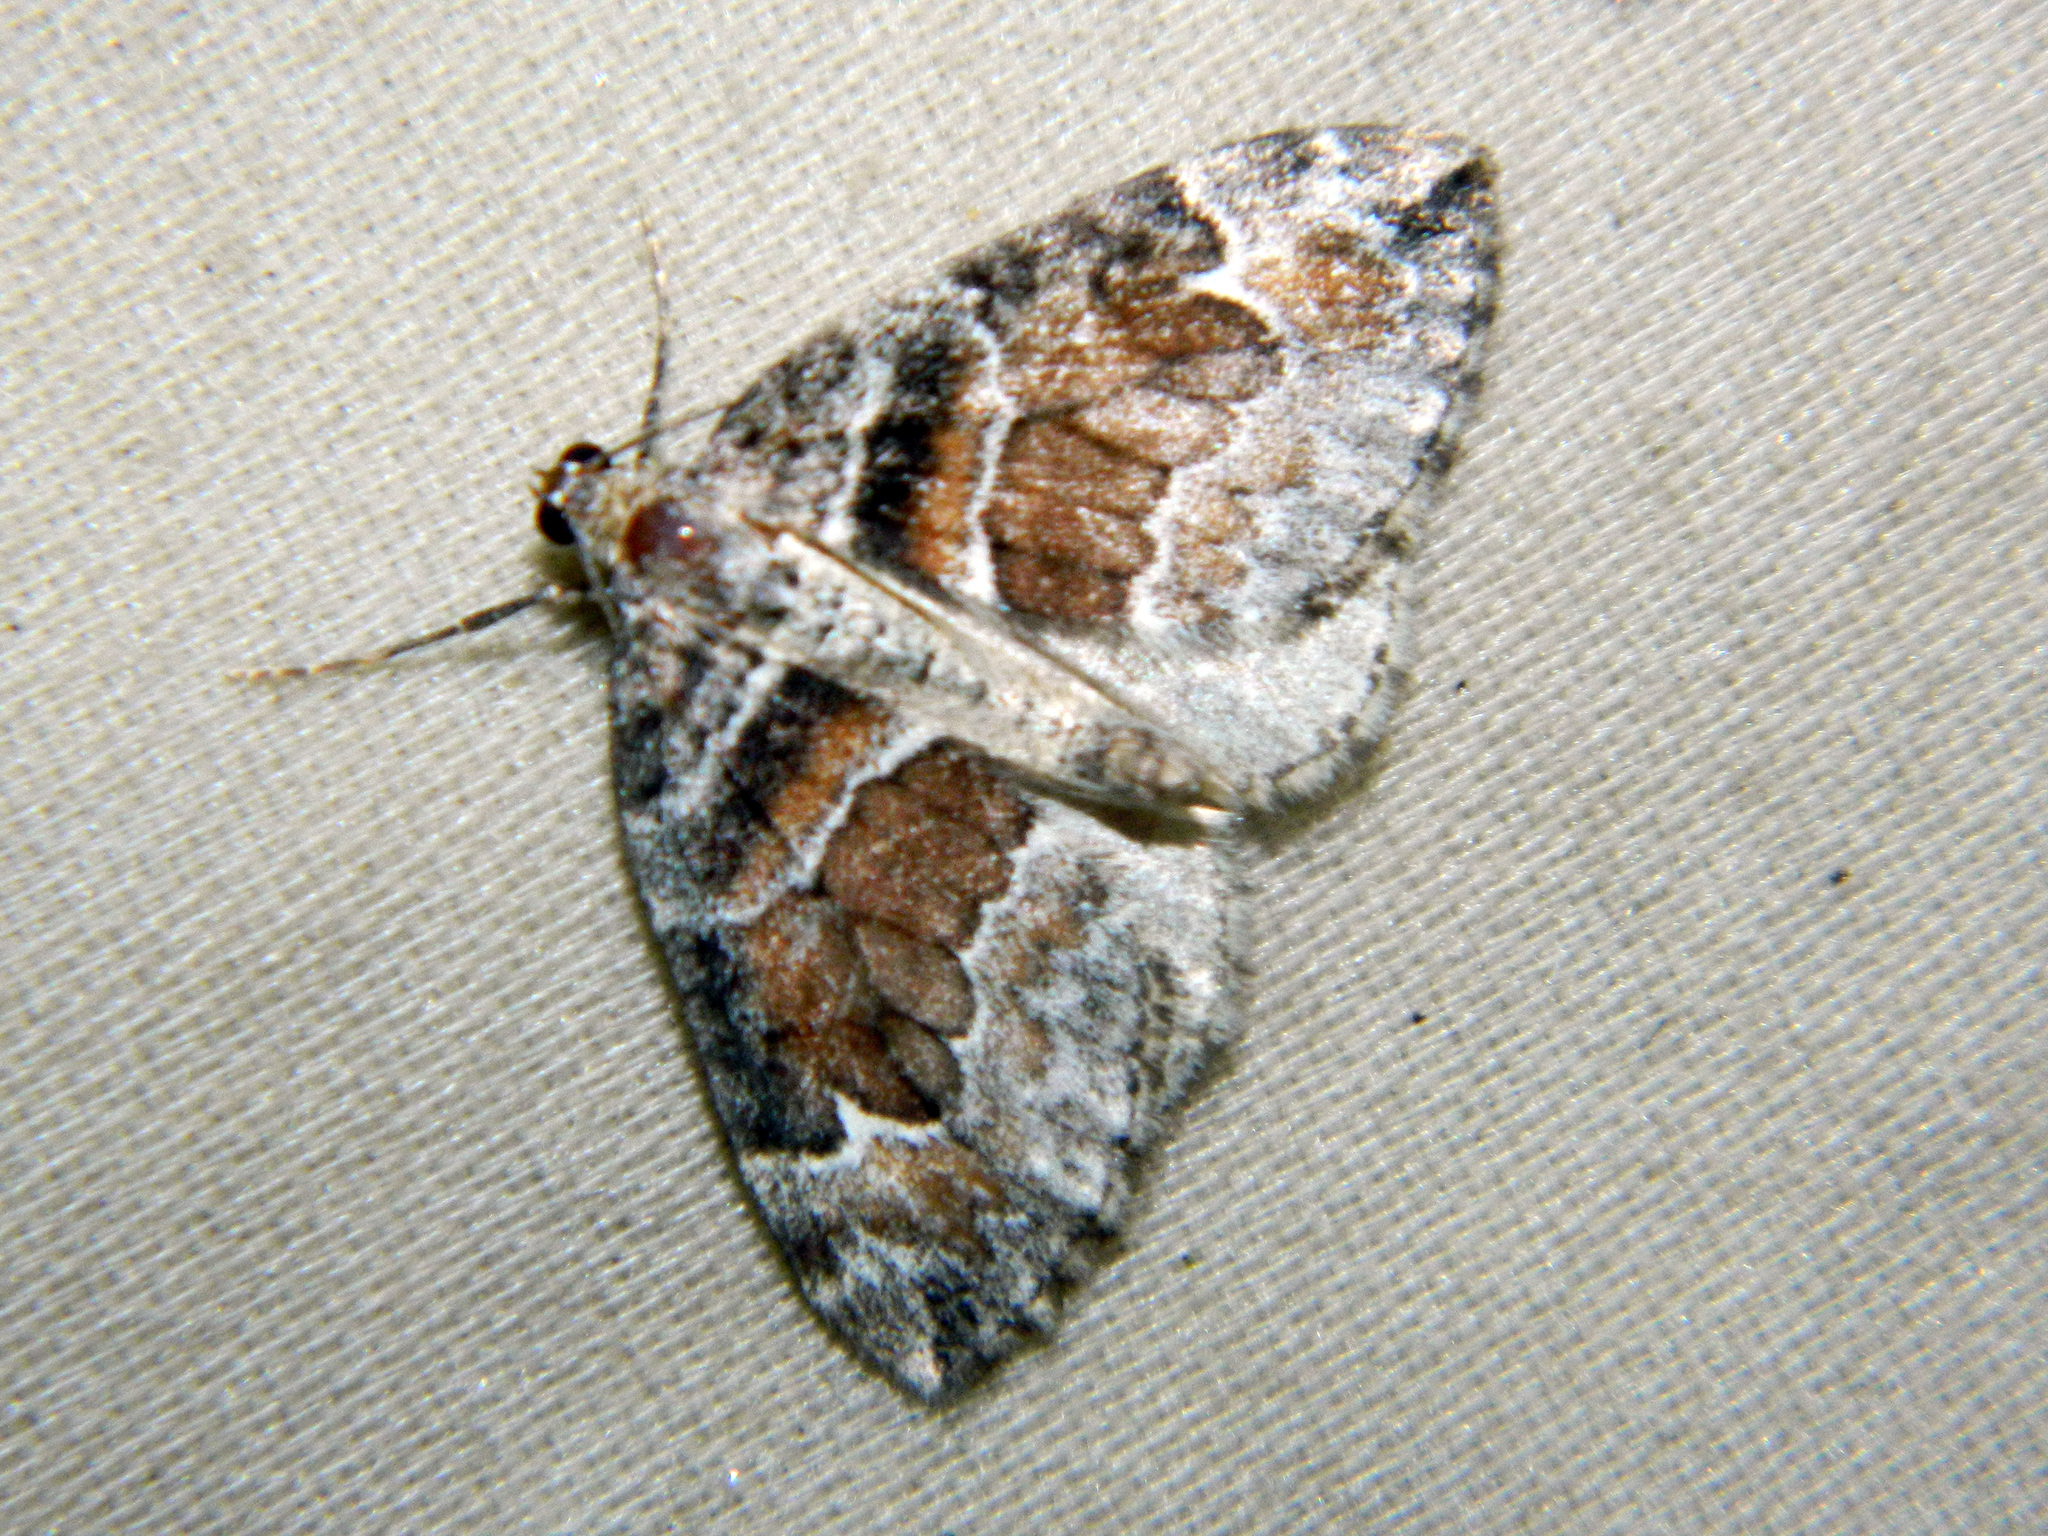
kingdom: Animalia
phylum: Arthropoda
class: Insecta
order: Lepidoptera
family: Geometridae
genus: Dysstroma
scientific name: Dysstroma hersiliata
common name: Orange-barred carpet
